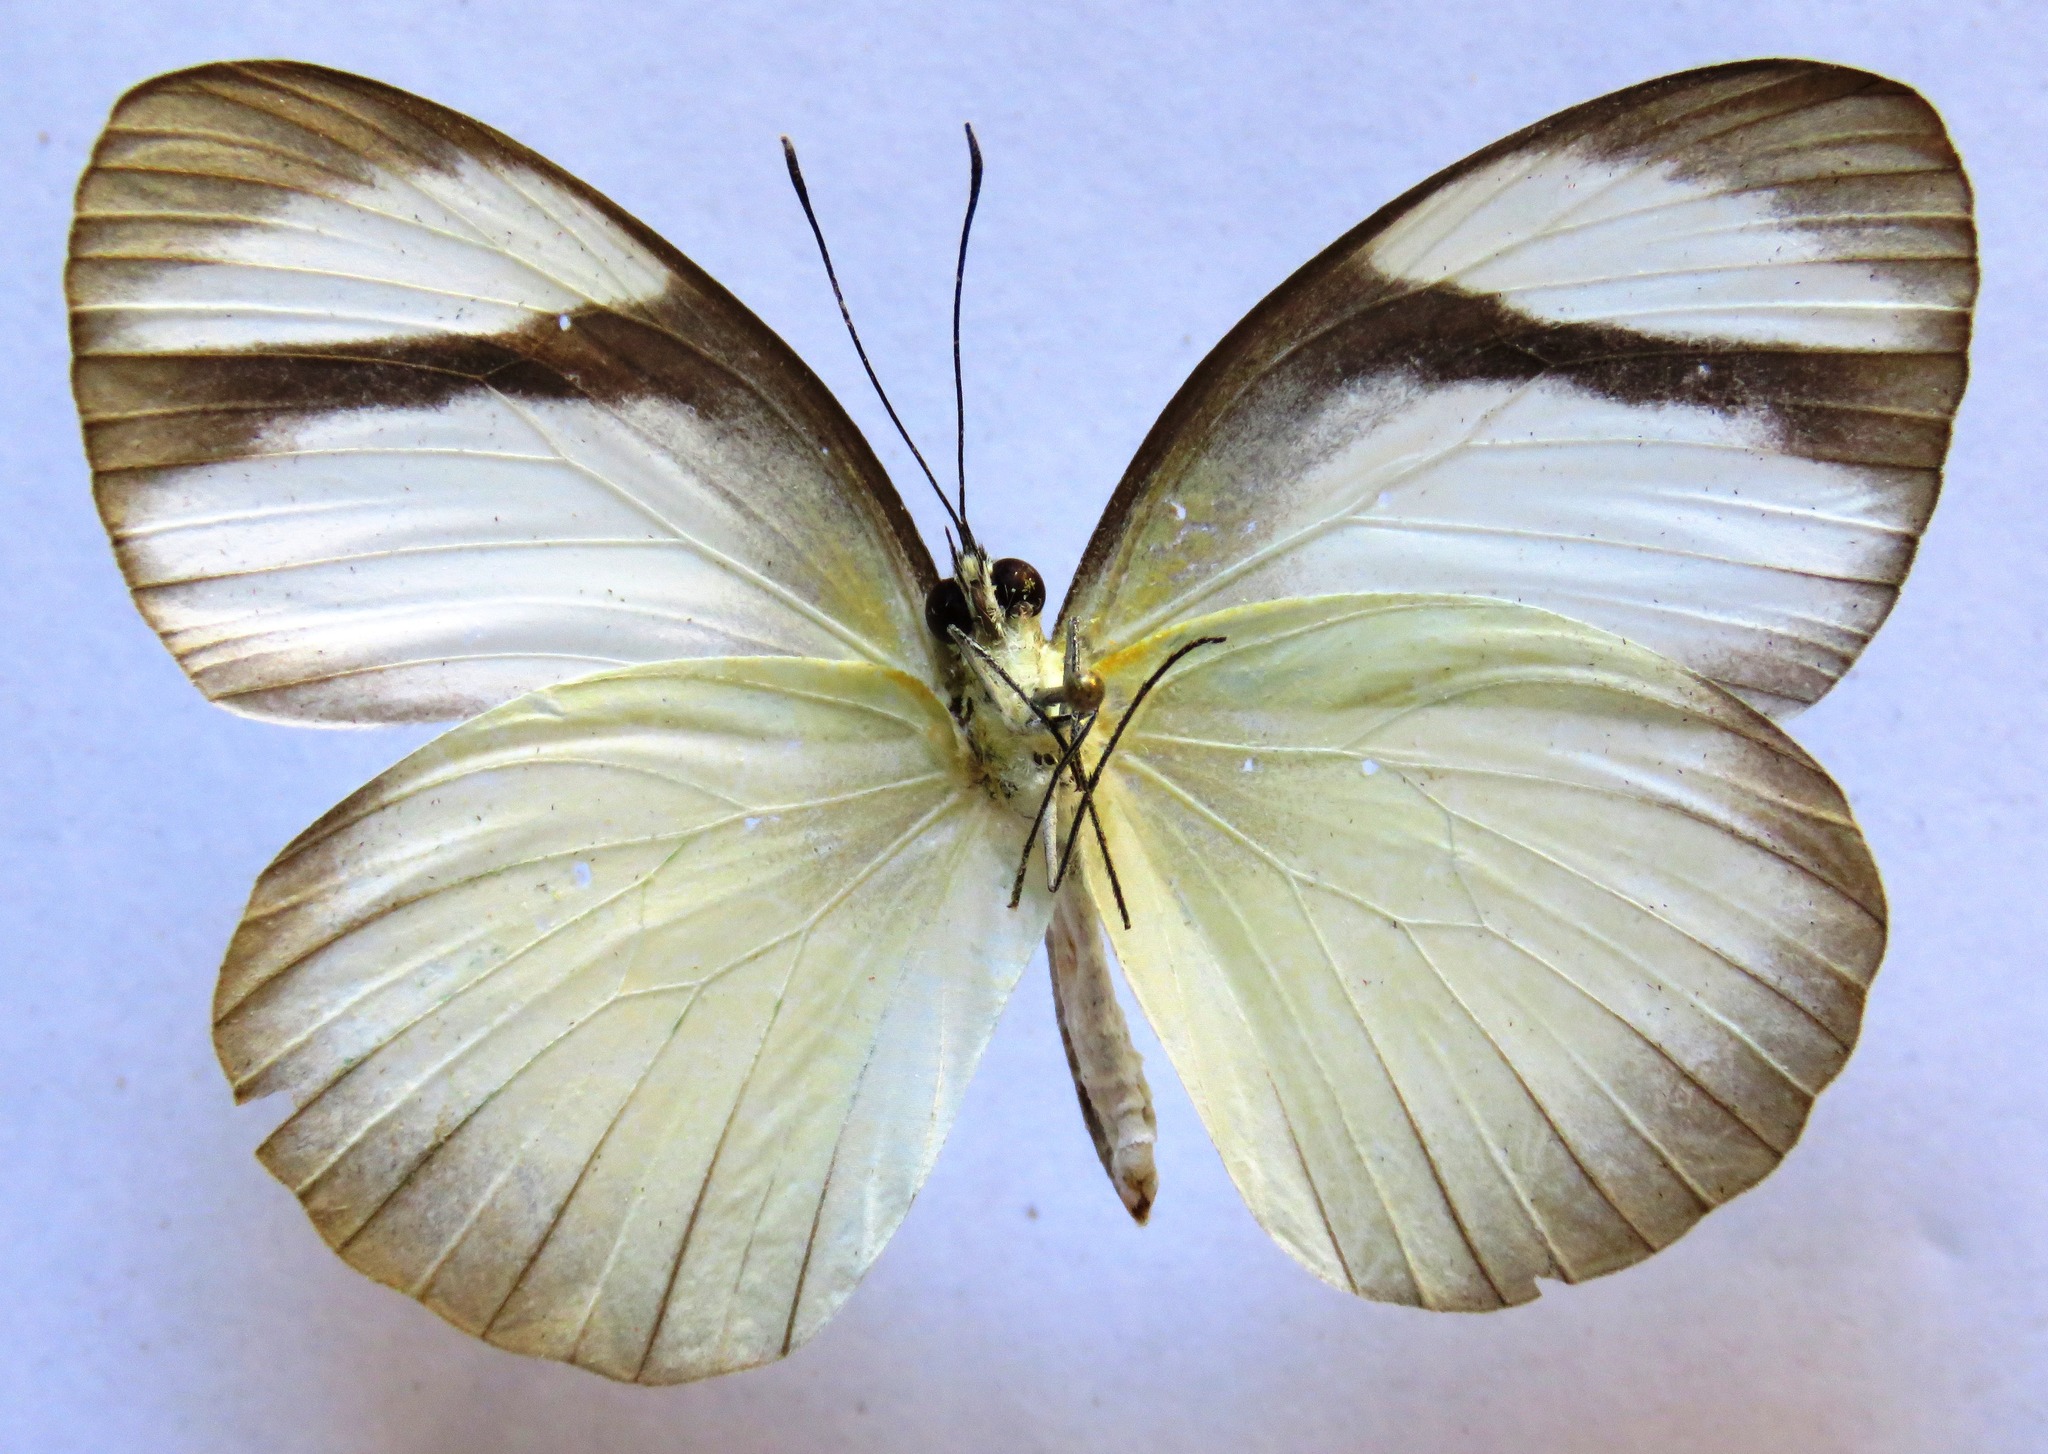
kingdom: Animalia
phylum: Arthropoda
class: Insecta
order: Lepidoptera
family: Pieridae
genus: Itaballia
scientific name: Itaballia demophile
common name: Cross-barred white
